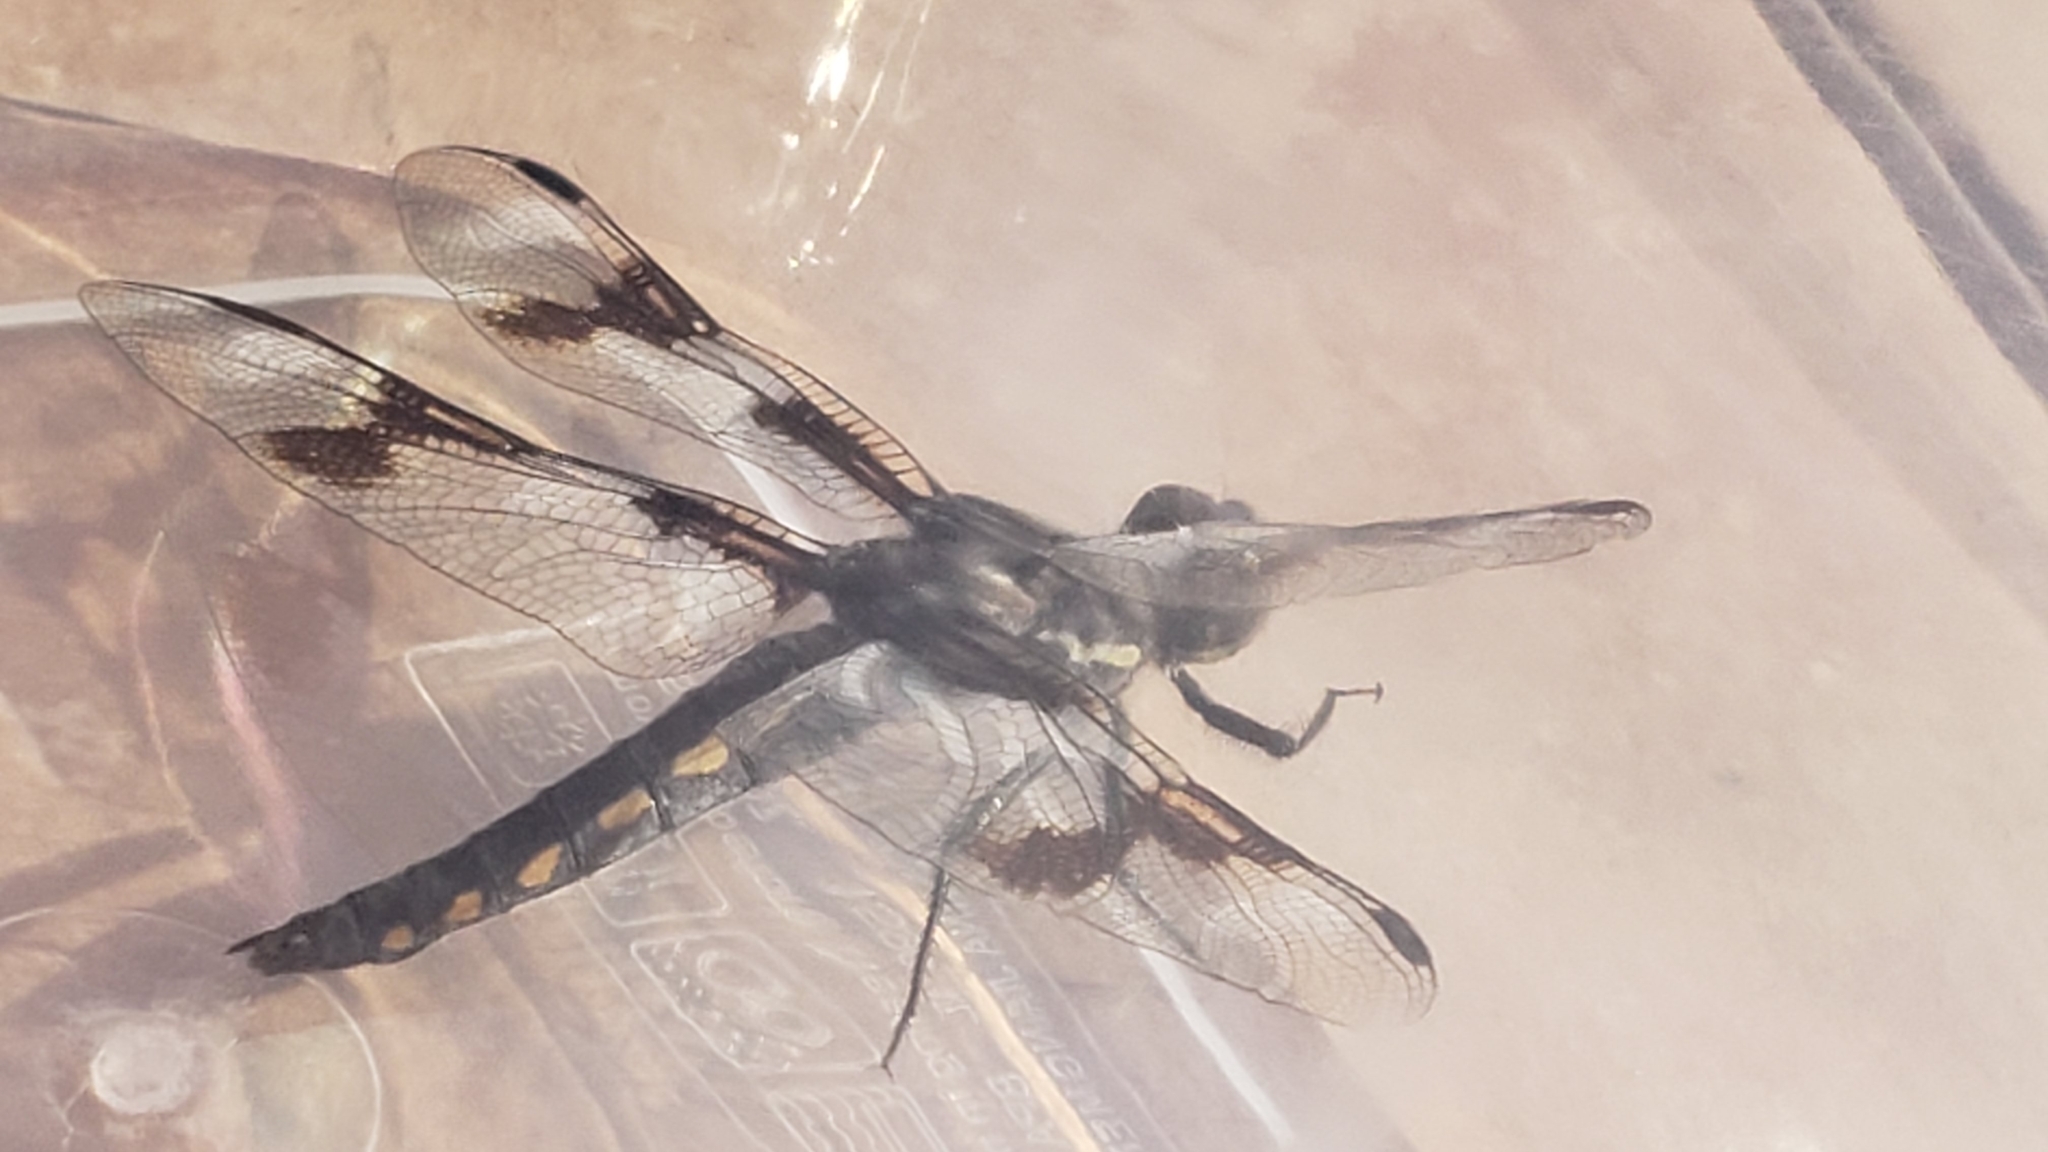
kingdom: Animalia
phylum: Arthropoda
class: Insecta
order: Odonata
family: Libellulidae
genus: Libellula
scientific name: Libellula forensis
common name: Eight-spotted skimmer
